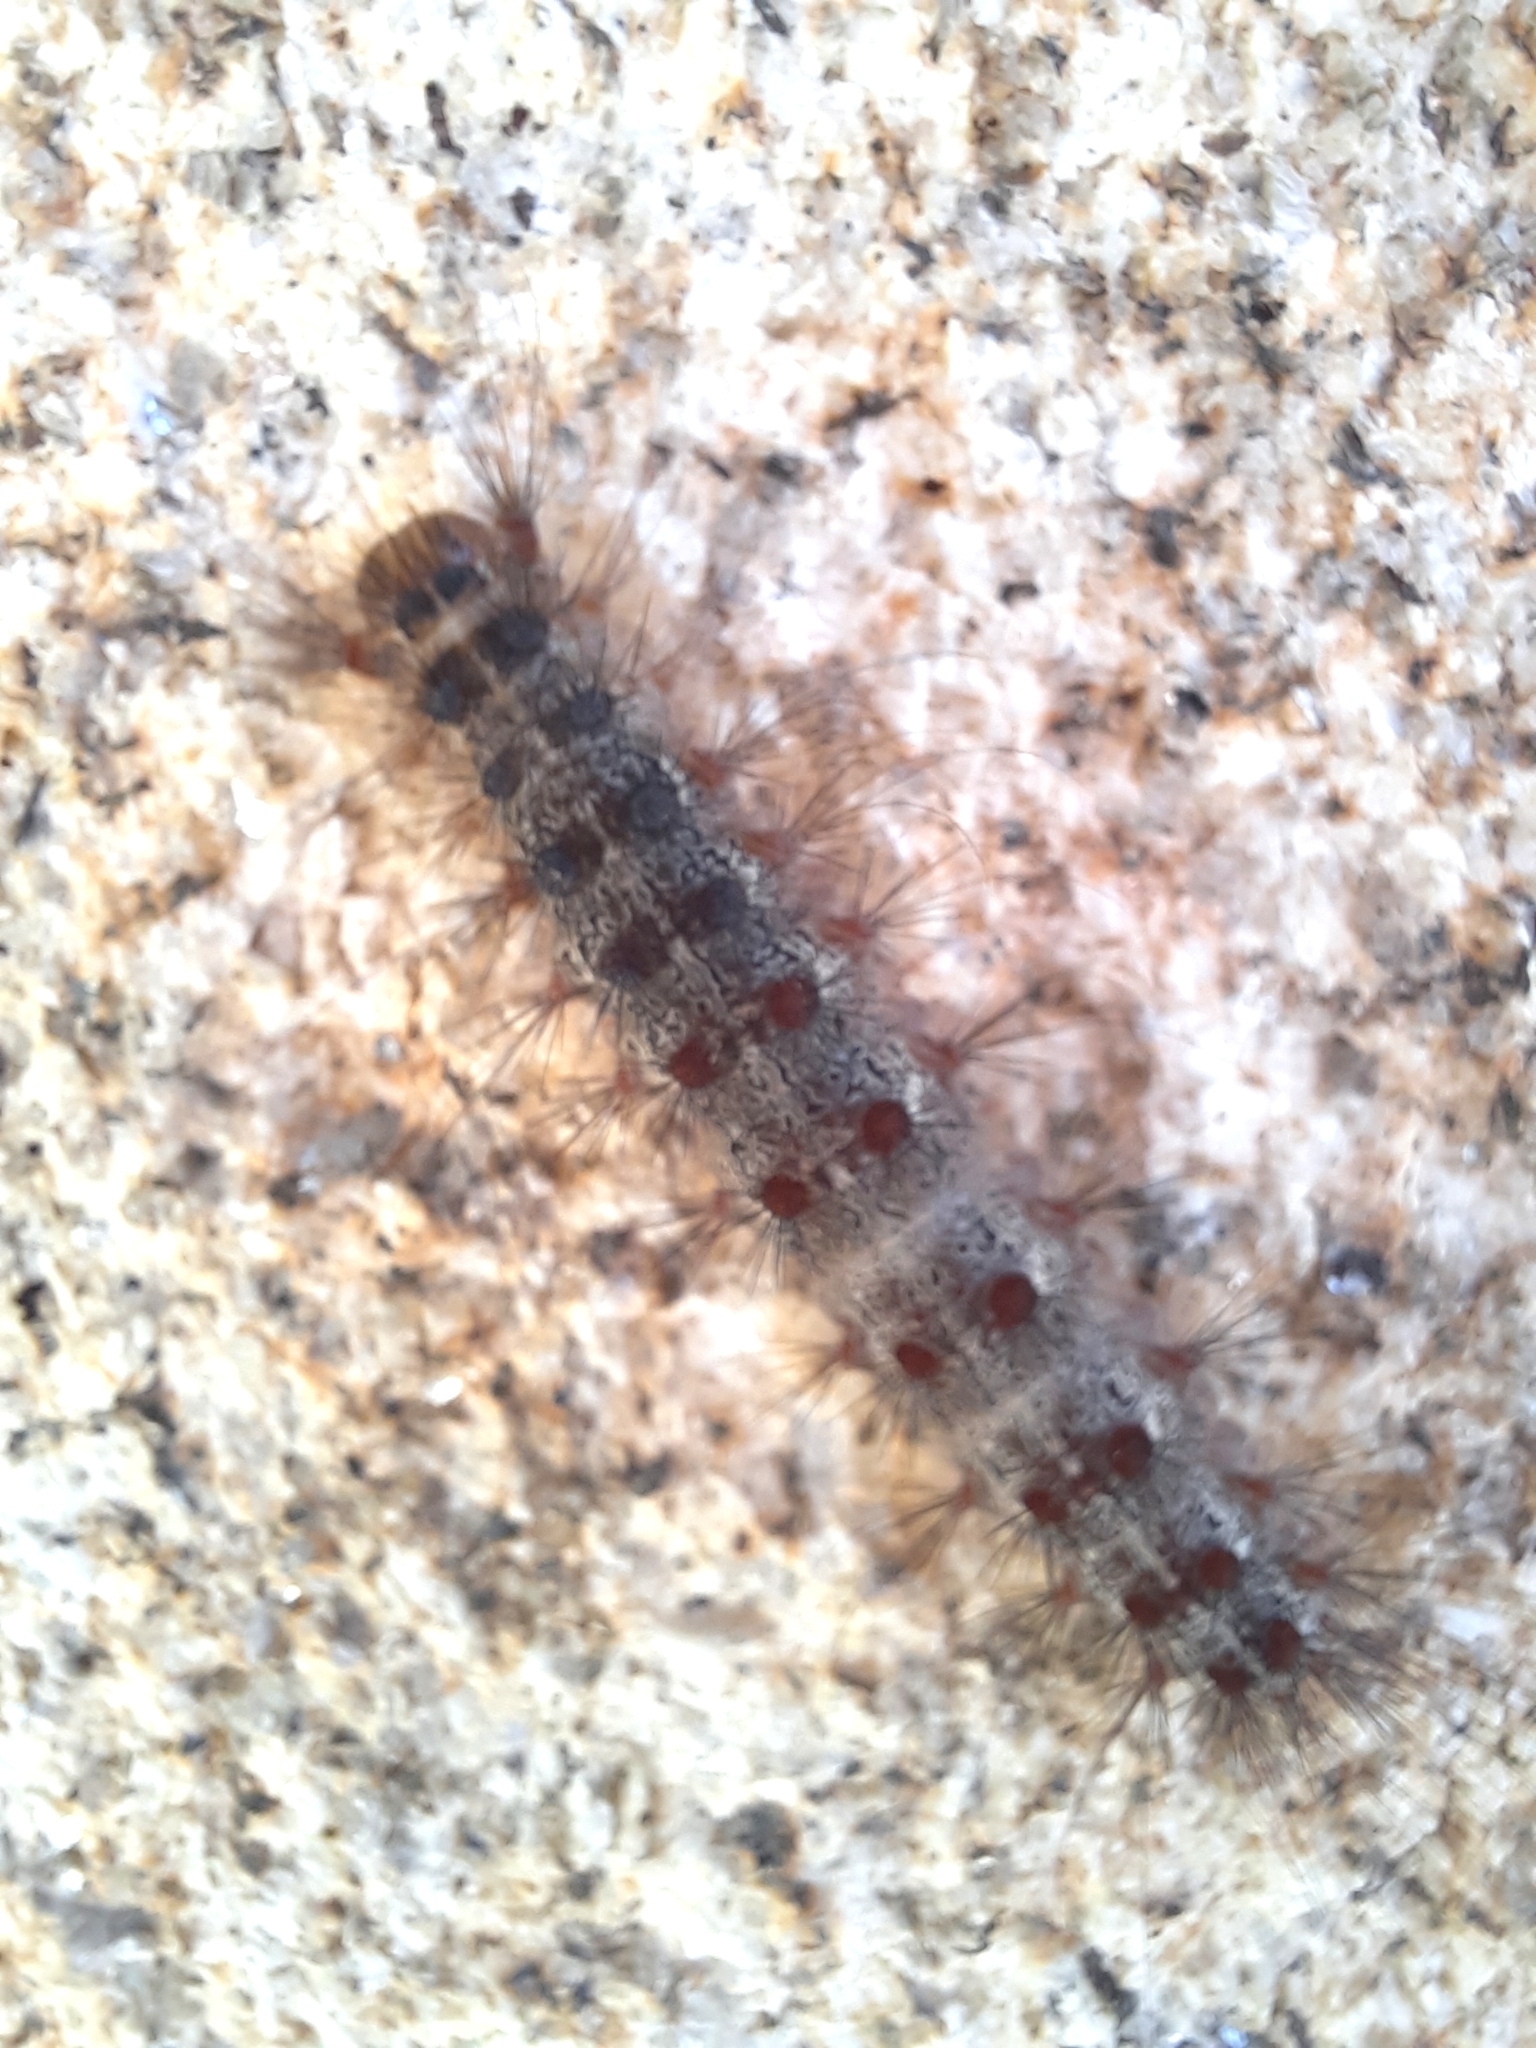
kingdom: Animalia
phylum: Arthropoda
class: Insecta
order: Lepidoptera
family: Erebidae
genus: Lymantria
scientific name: Lymantria dispar
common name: Gypsy moth
